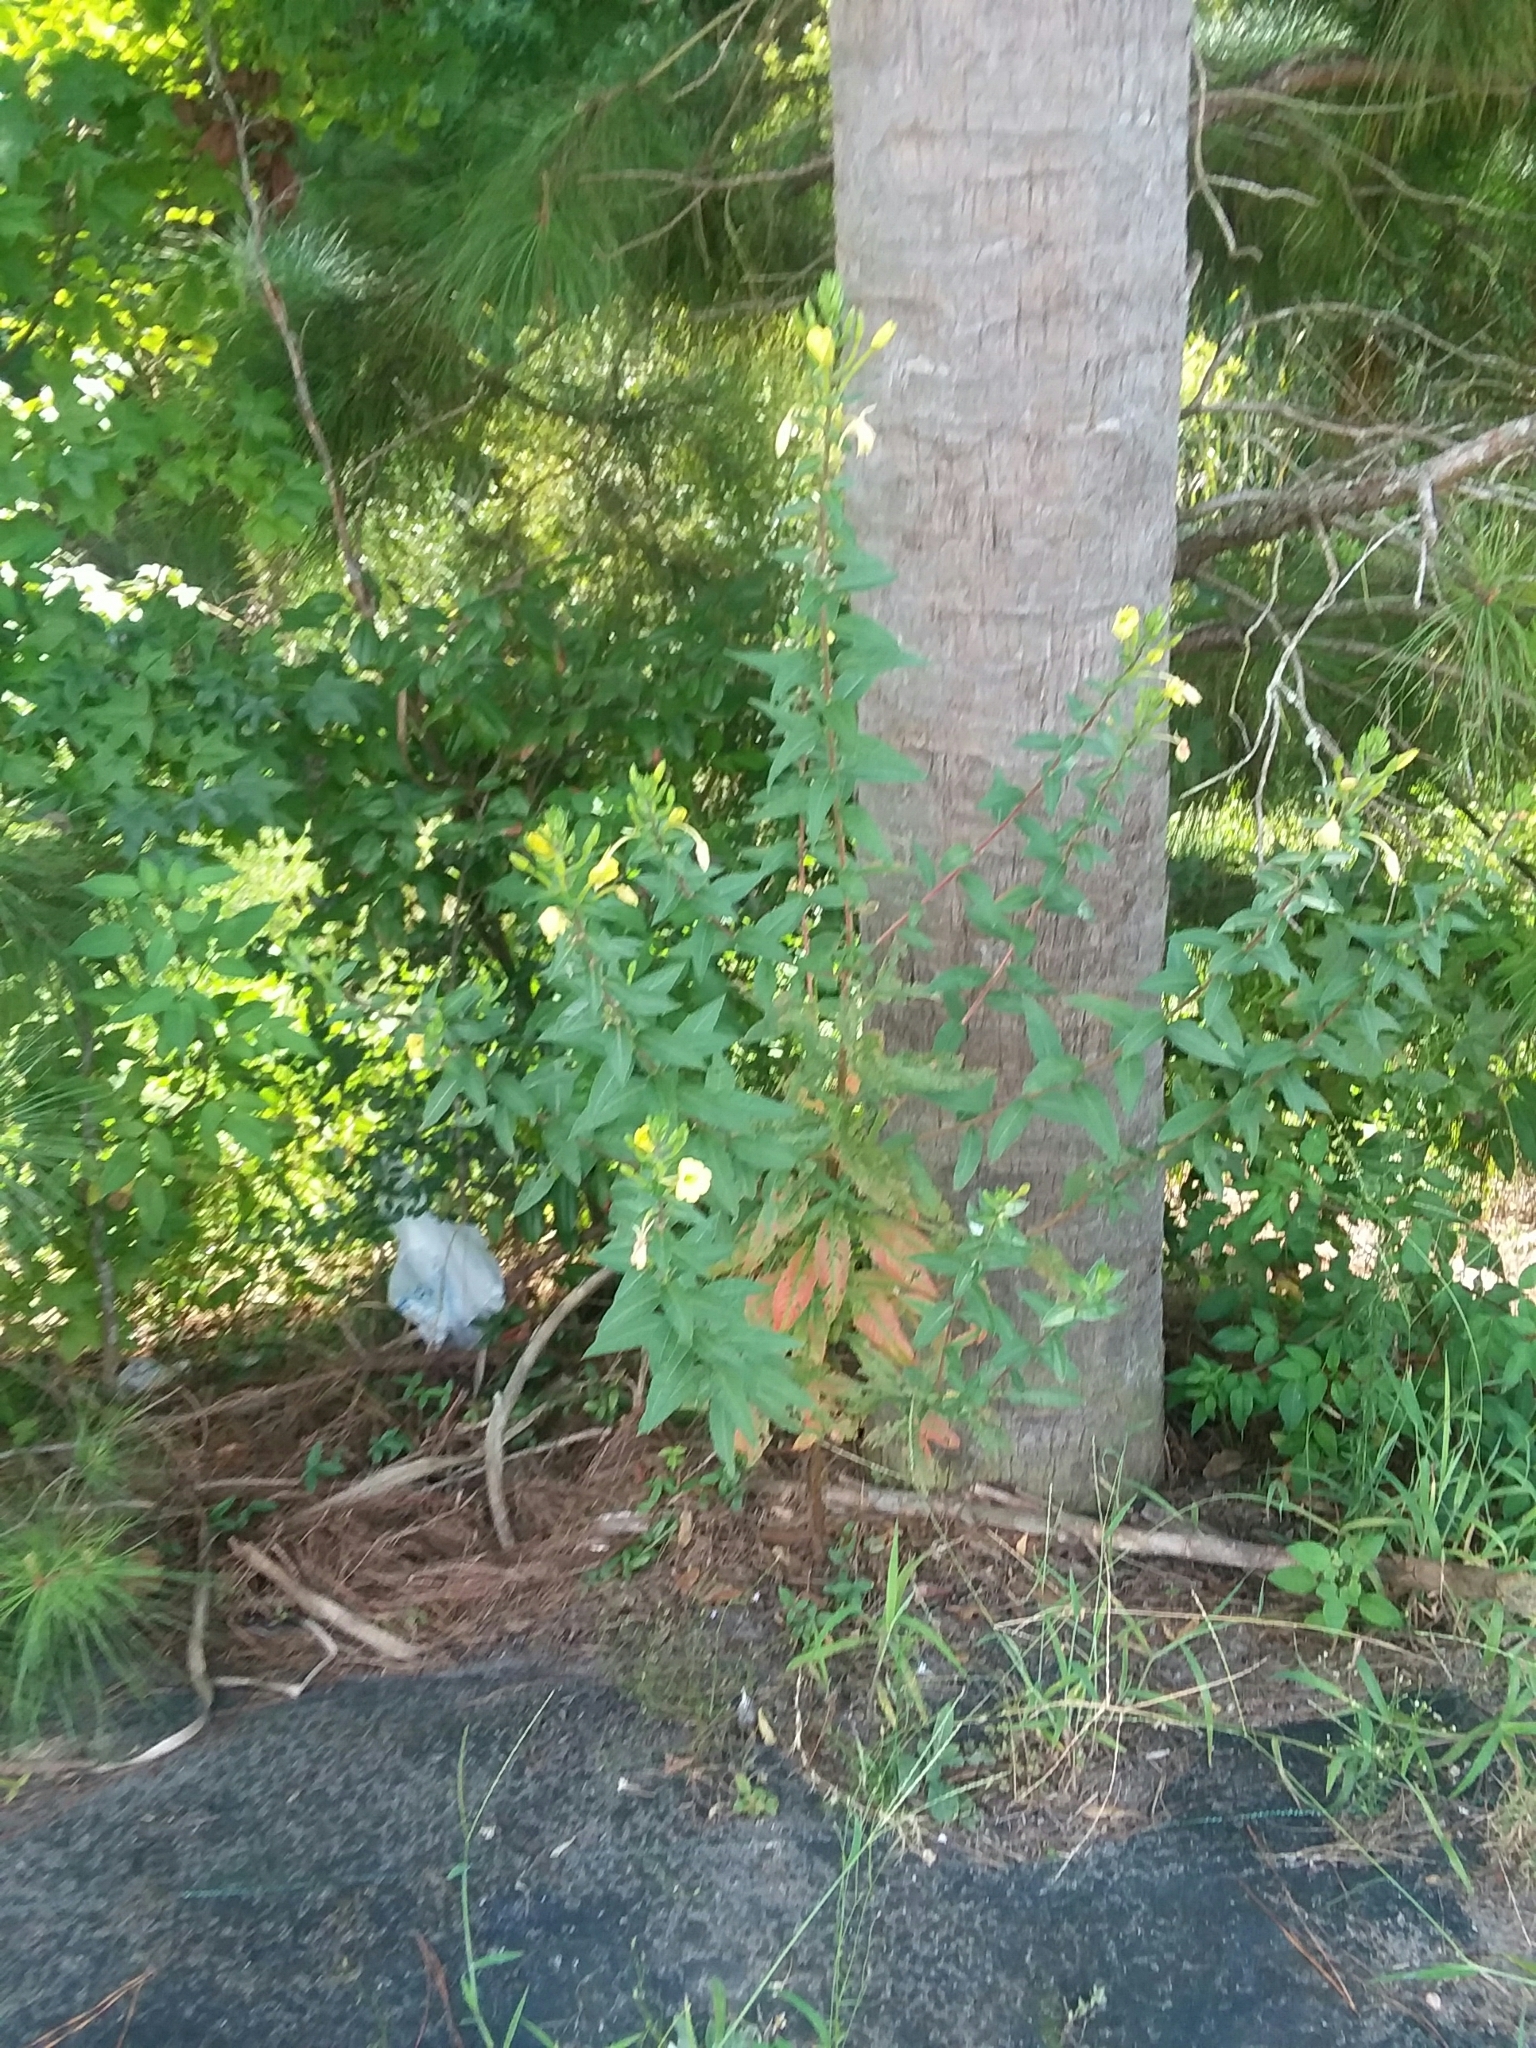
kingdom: Plantae
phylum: Tracheophyta
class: Magnoliopsida
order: Myrtales
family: Onagraceae
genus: Oenothera
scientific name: Oenothera biennis
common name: Common evening-primrose
